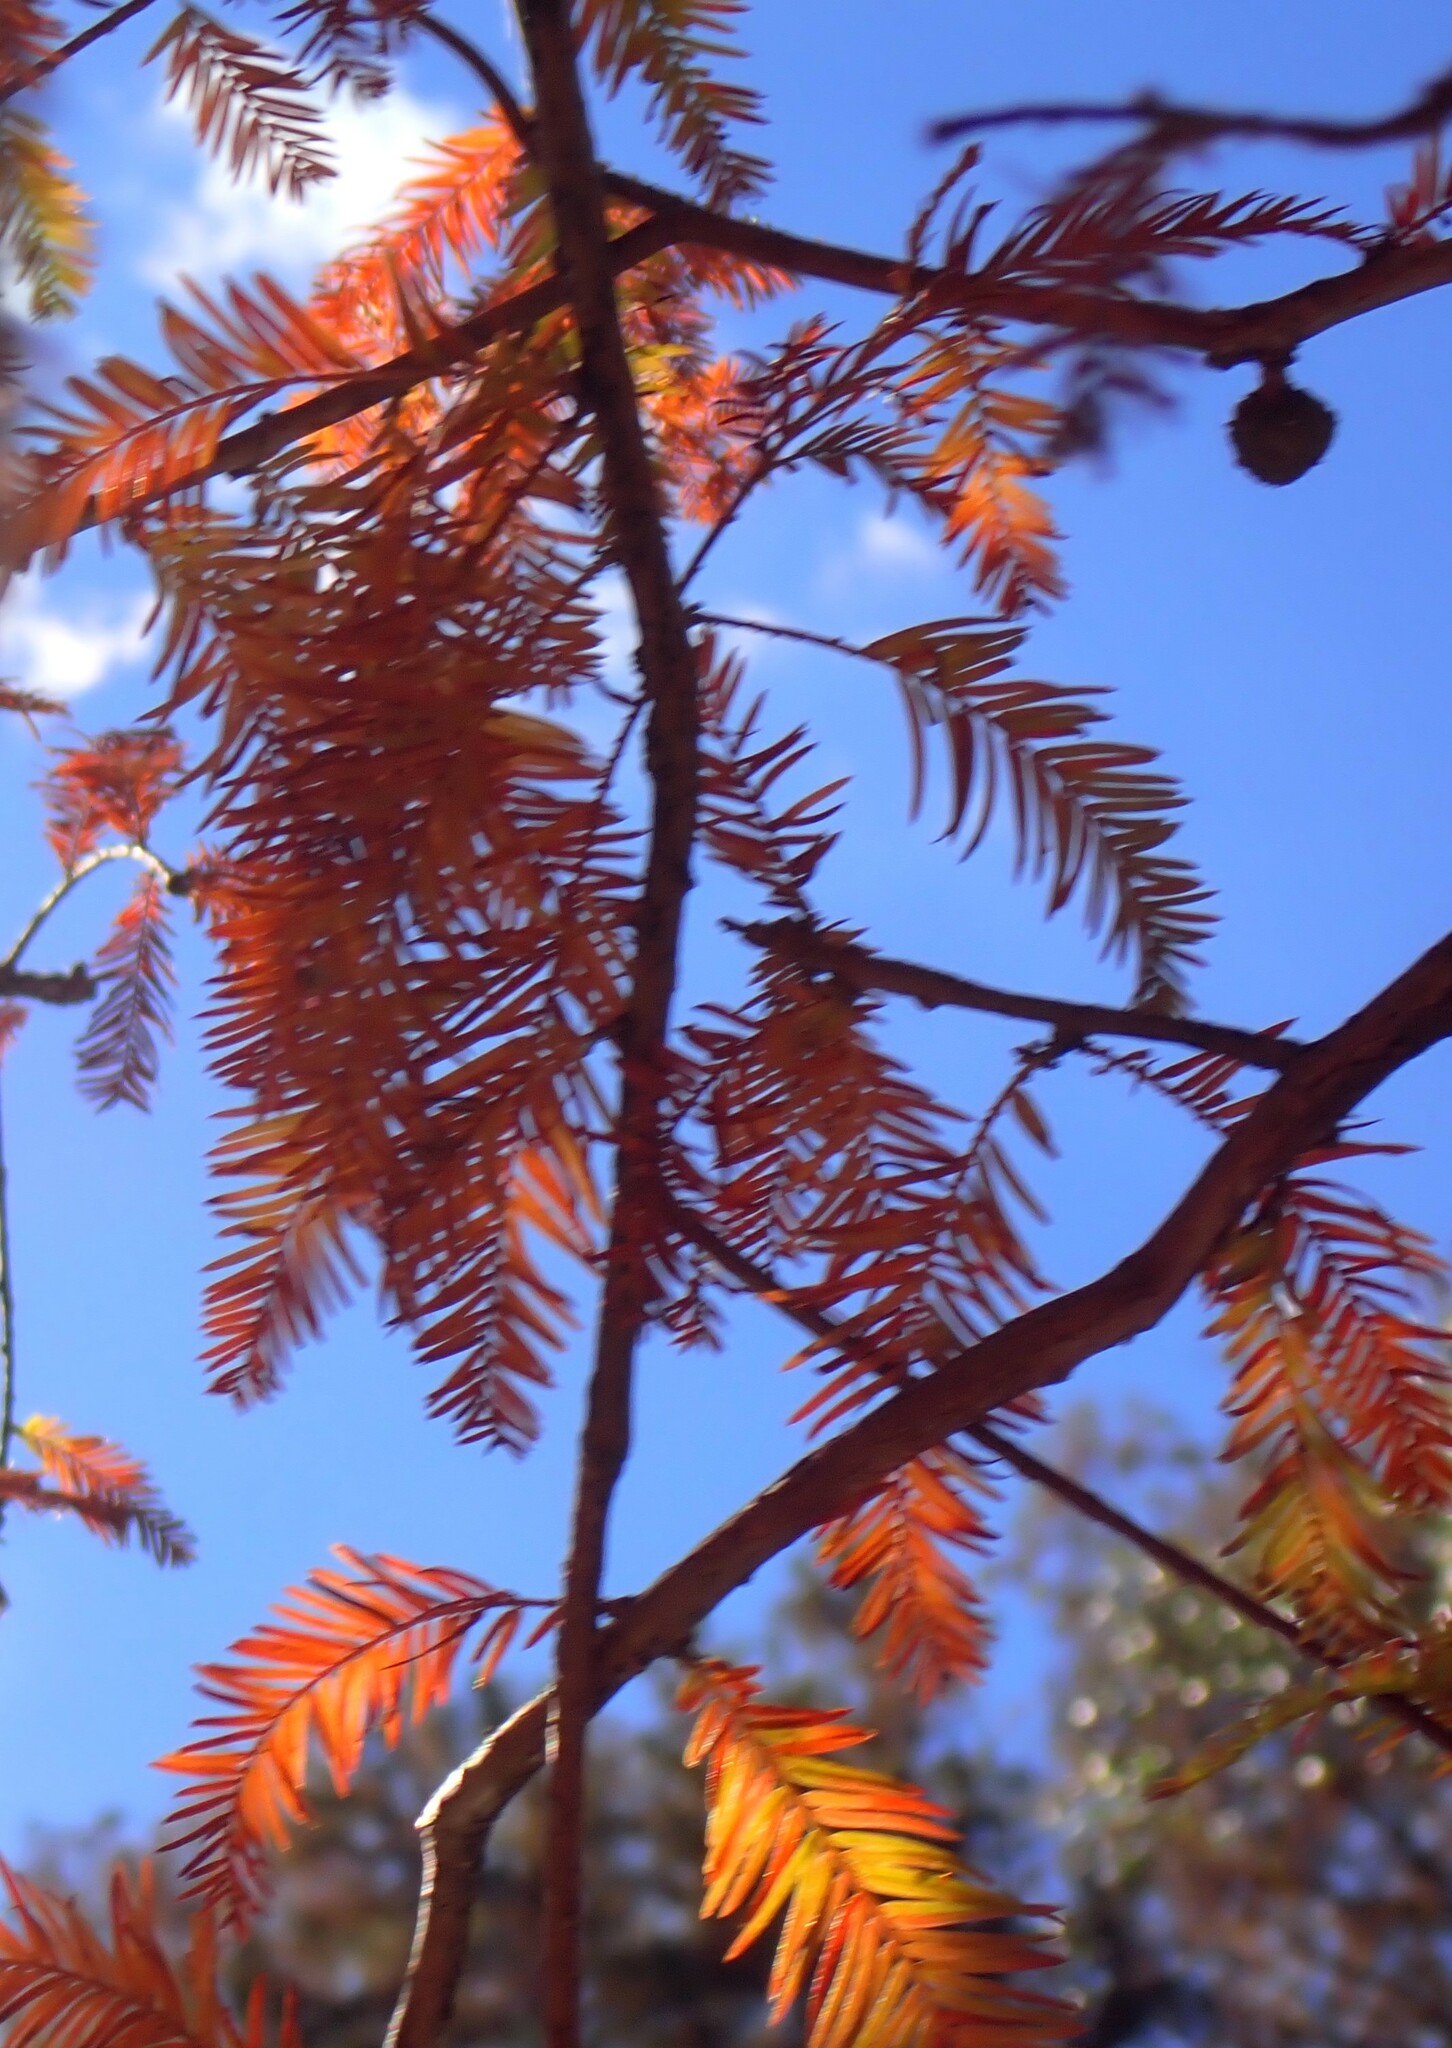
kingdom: Plantae
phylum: Tracheophyta
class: Pinopsida
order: Pinales
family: Cupressaceae
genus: Taxodium
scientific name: Taxodium distichum
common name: Bald cypress
